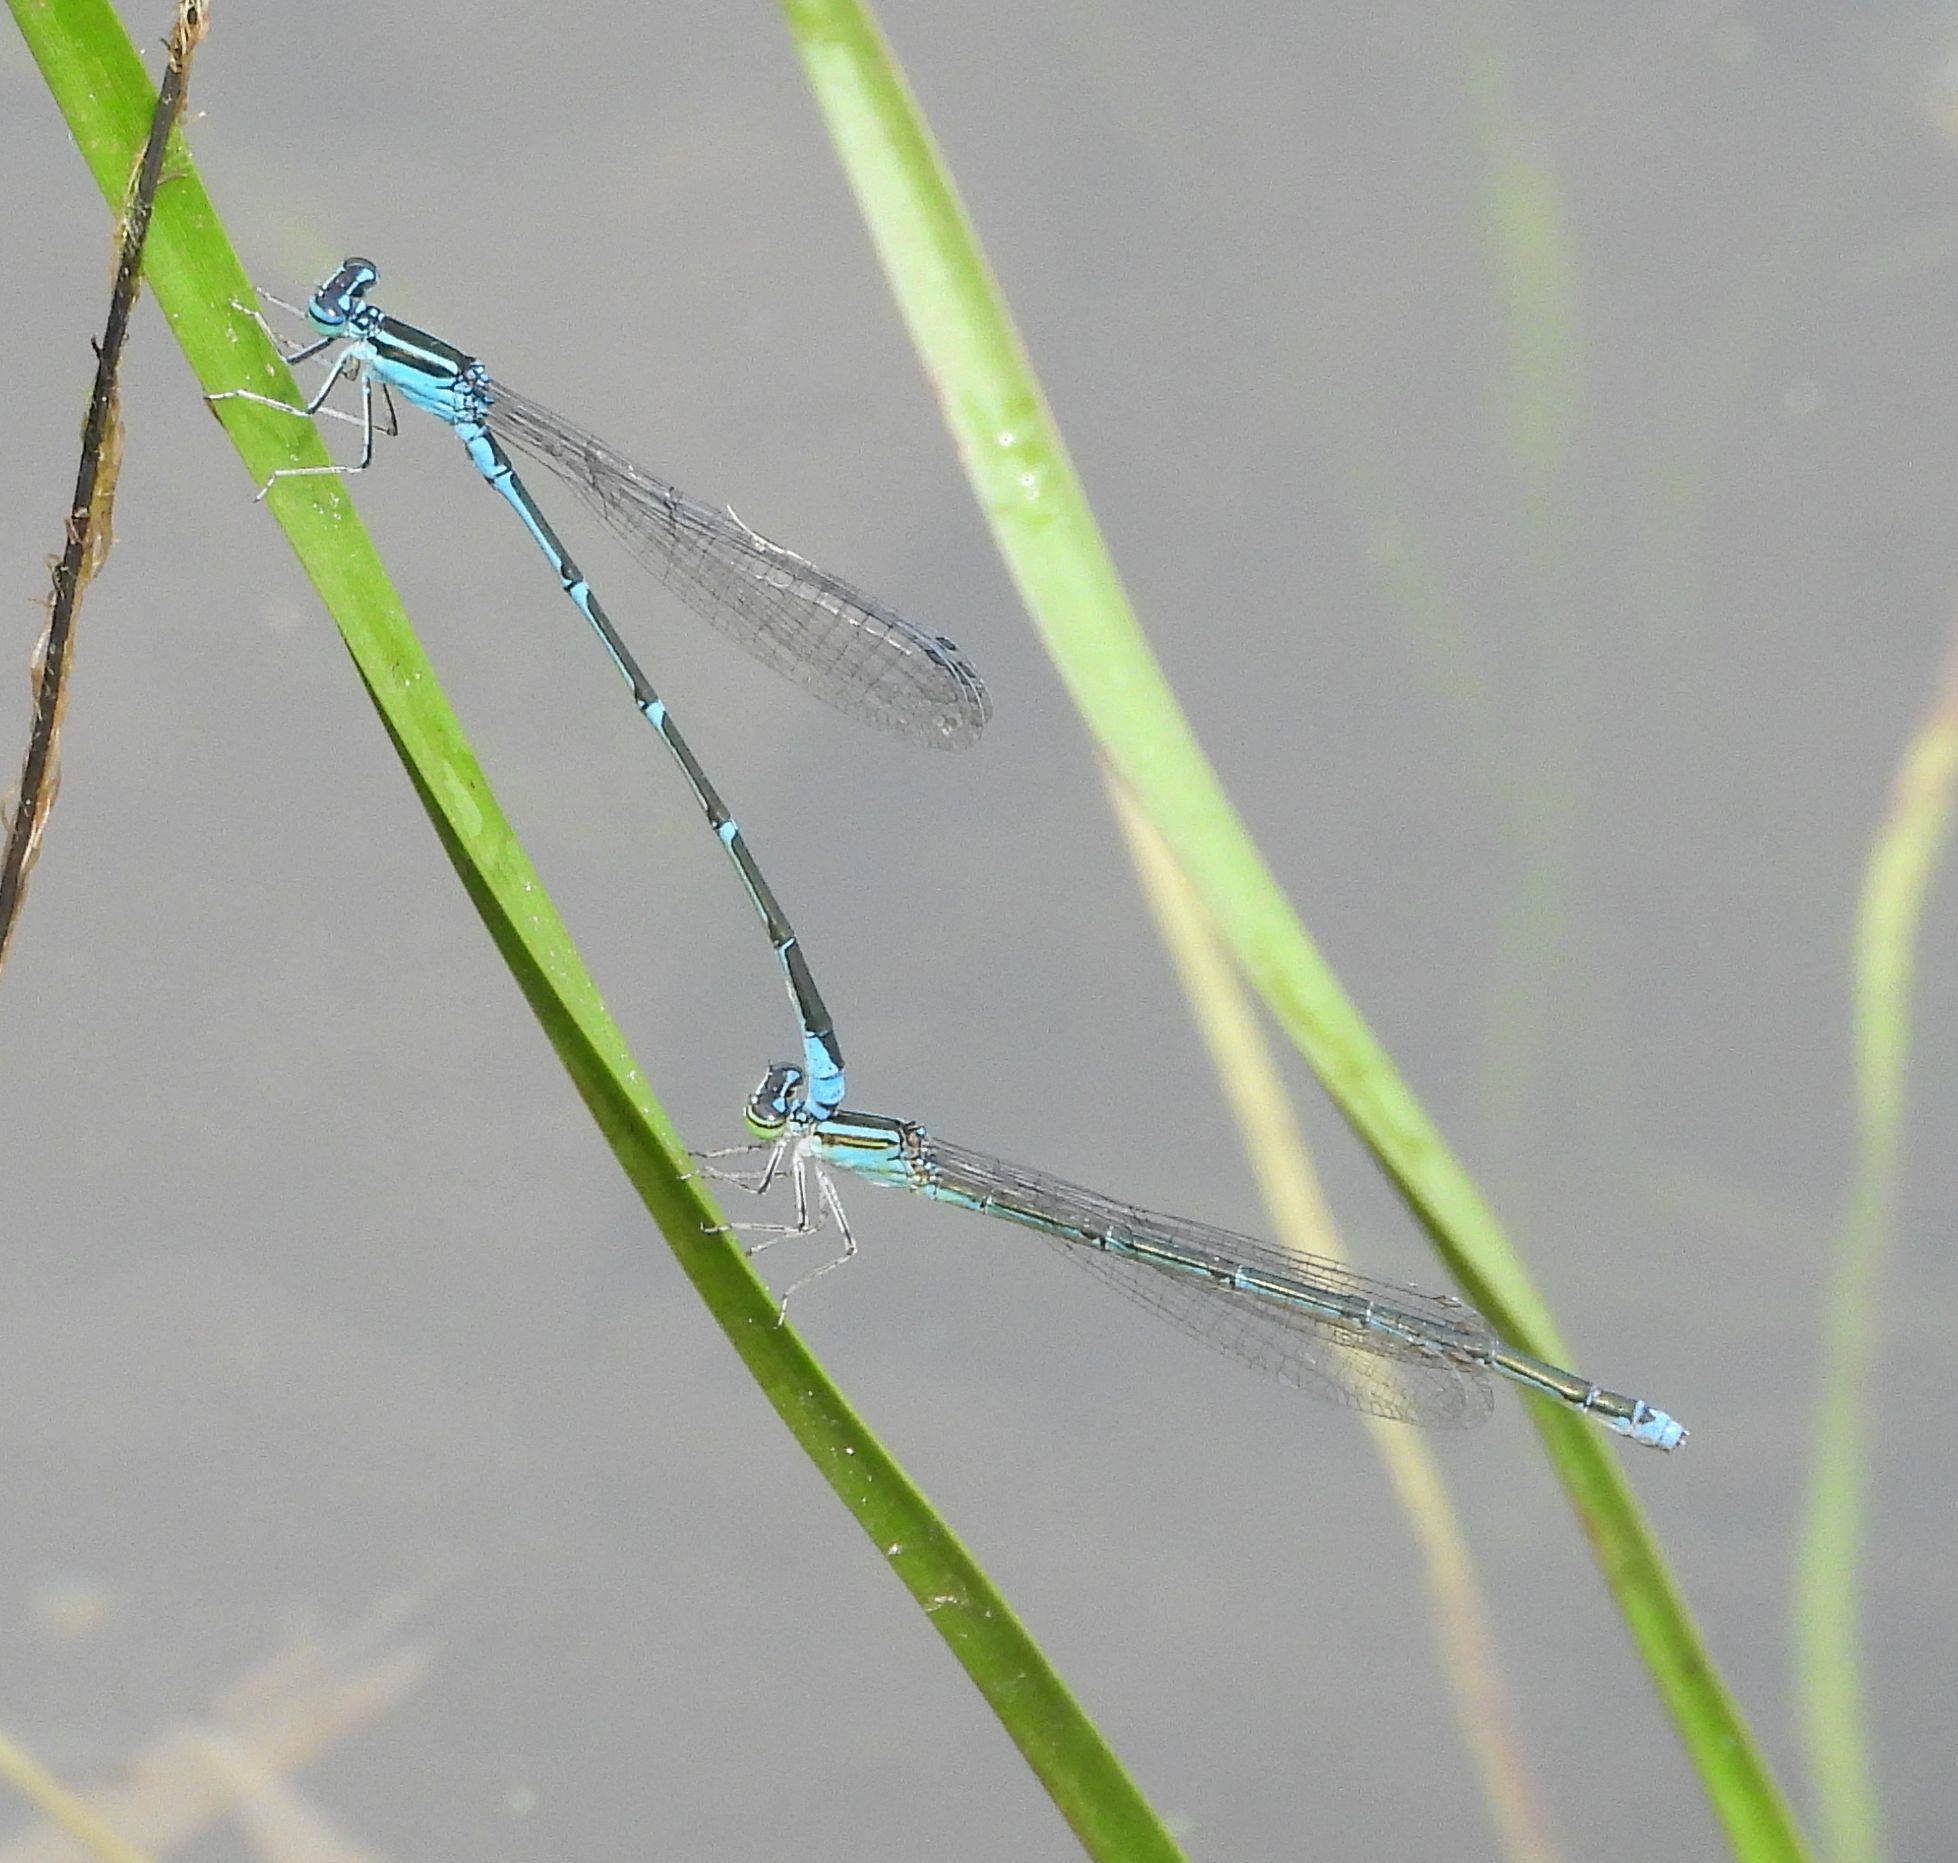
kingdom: Animalia
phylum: Arthropoda
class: Insecta
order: Odonata
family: Coenagrionidae
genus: Enallagma
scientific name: Enallagma exsulans
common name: Stream bluet
